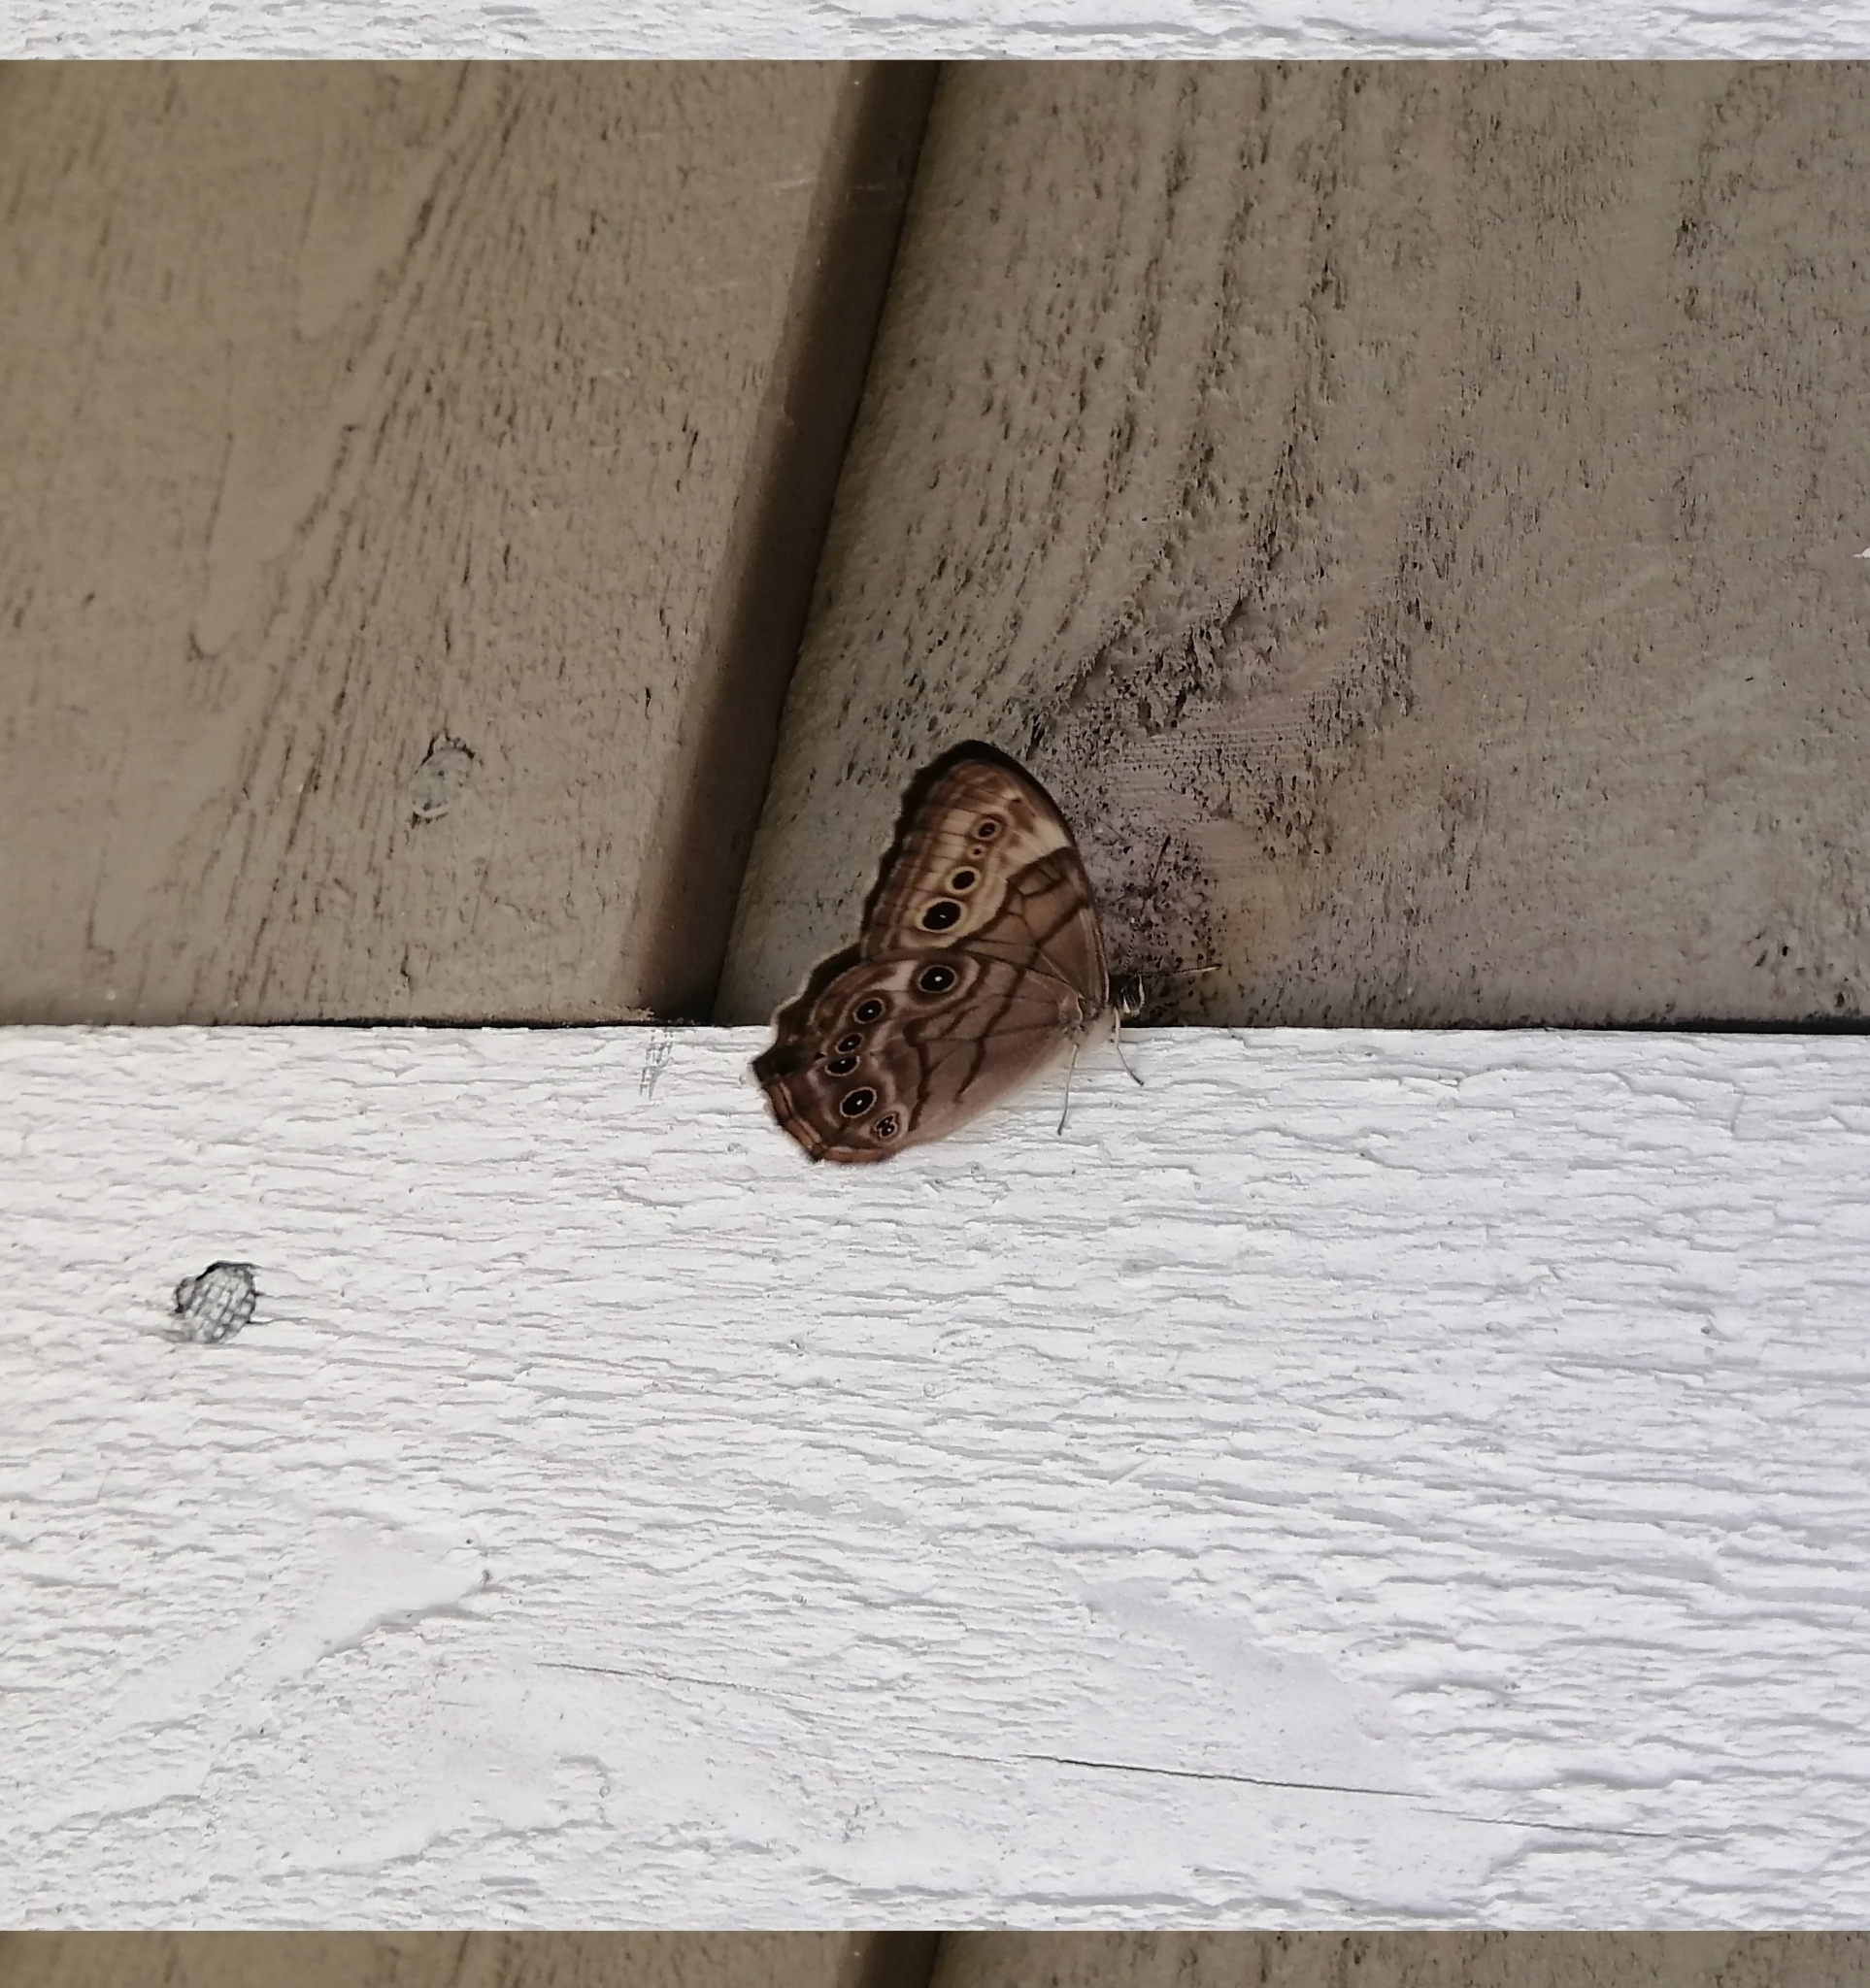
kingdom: Animalia
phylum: Arthropoda
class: Insecta
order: Lepidoptera
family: Nymphalidae
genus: Lethe
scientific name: Lethe anthedon
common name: Northern pearly-eye
